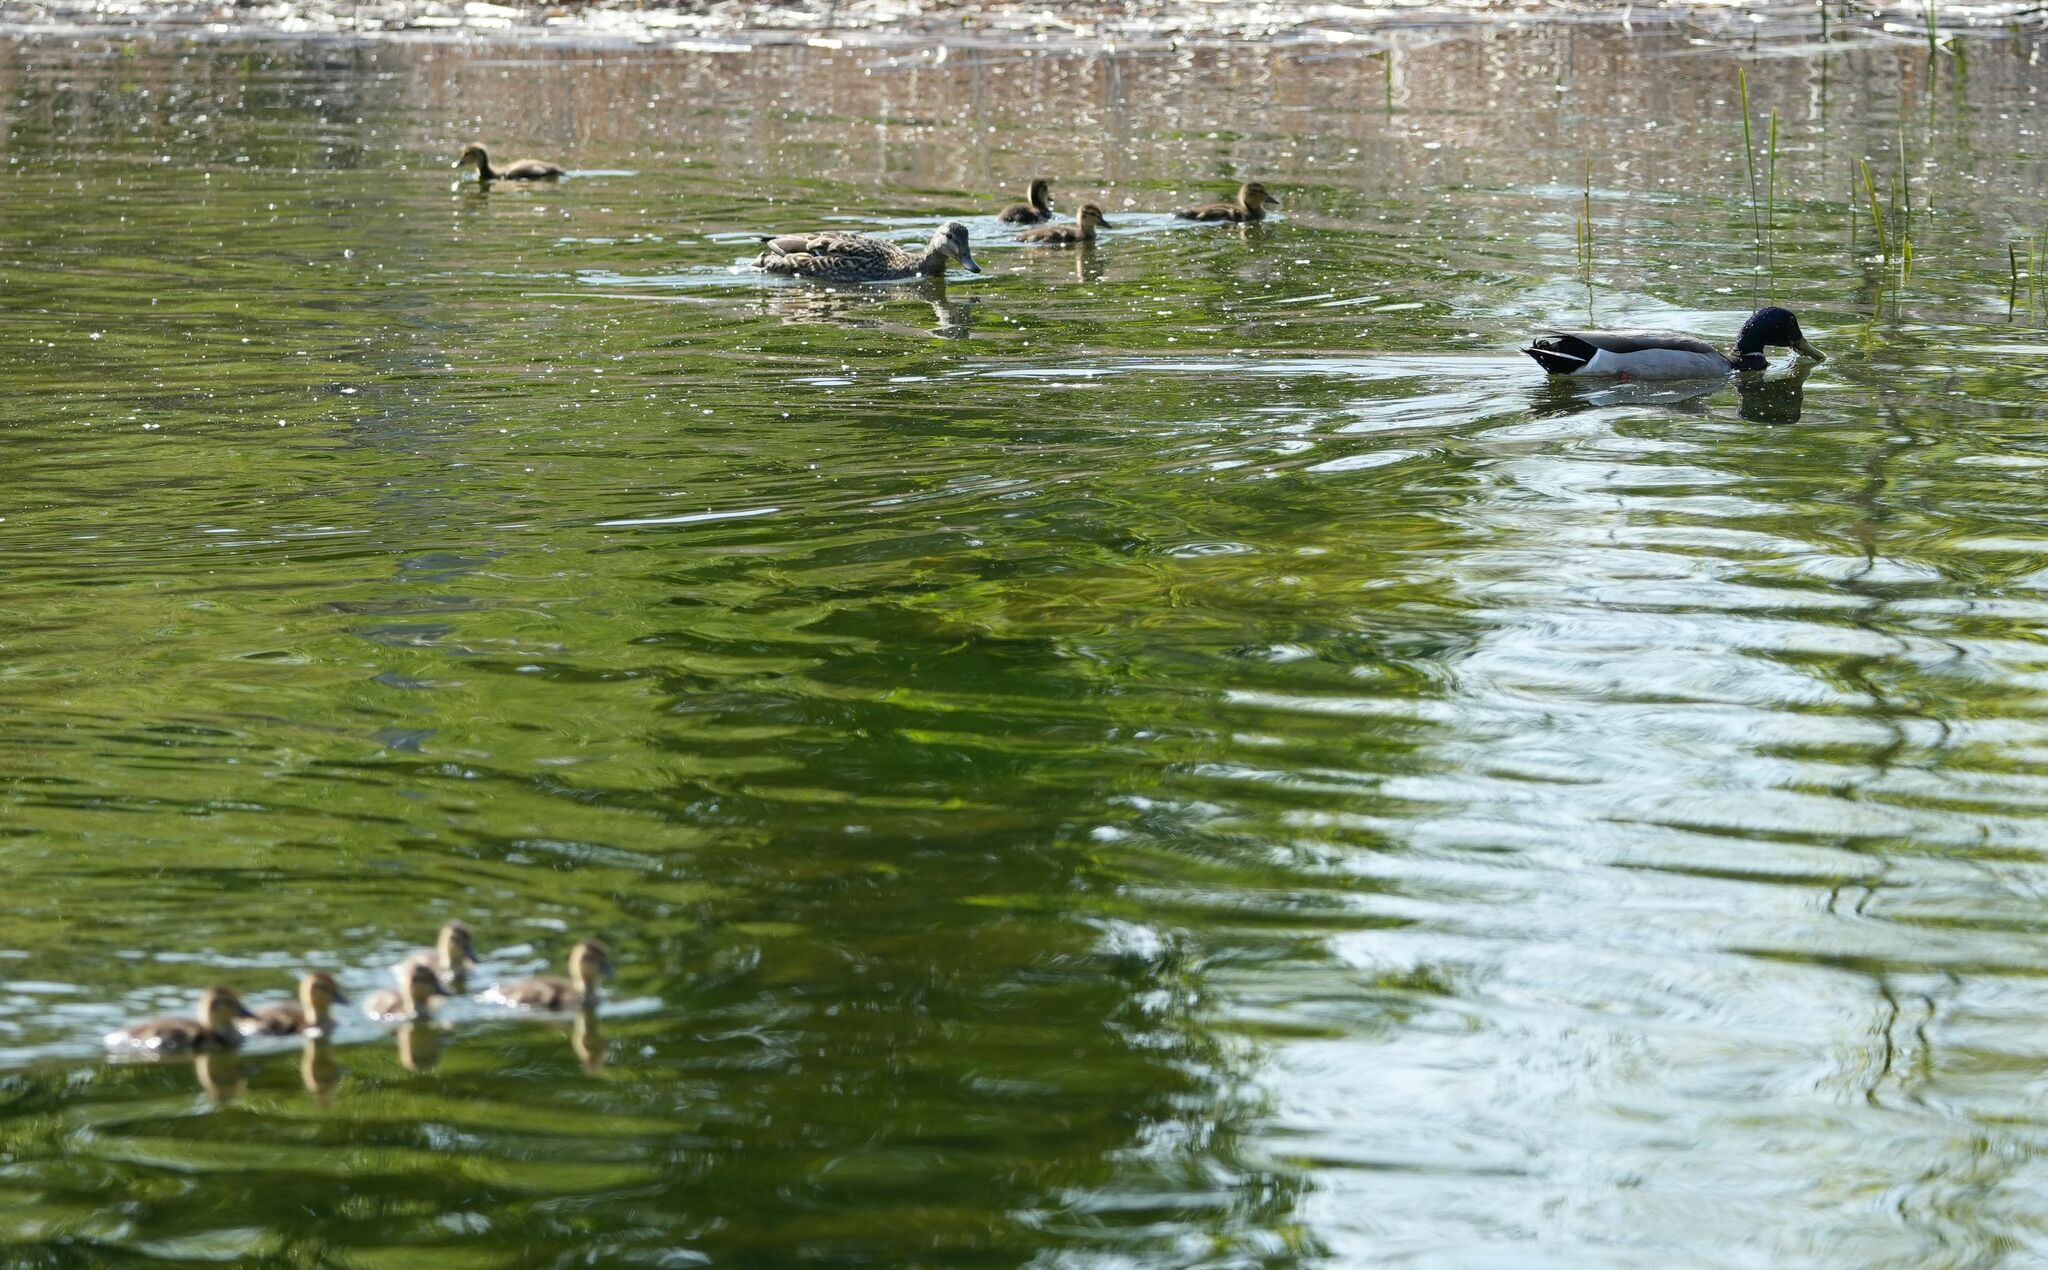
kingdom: Animalia
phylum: Chordata
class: Aves
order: Anseriformes
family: Anatidae
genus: Anas
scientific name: Anas platyrhynchos
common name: Mallard
